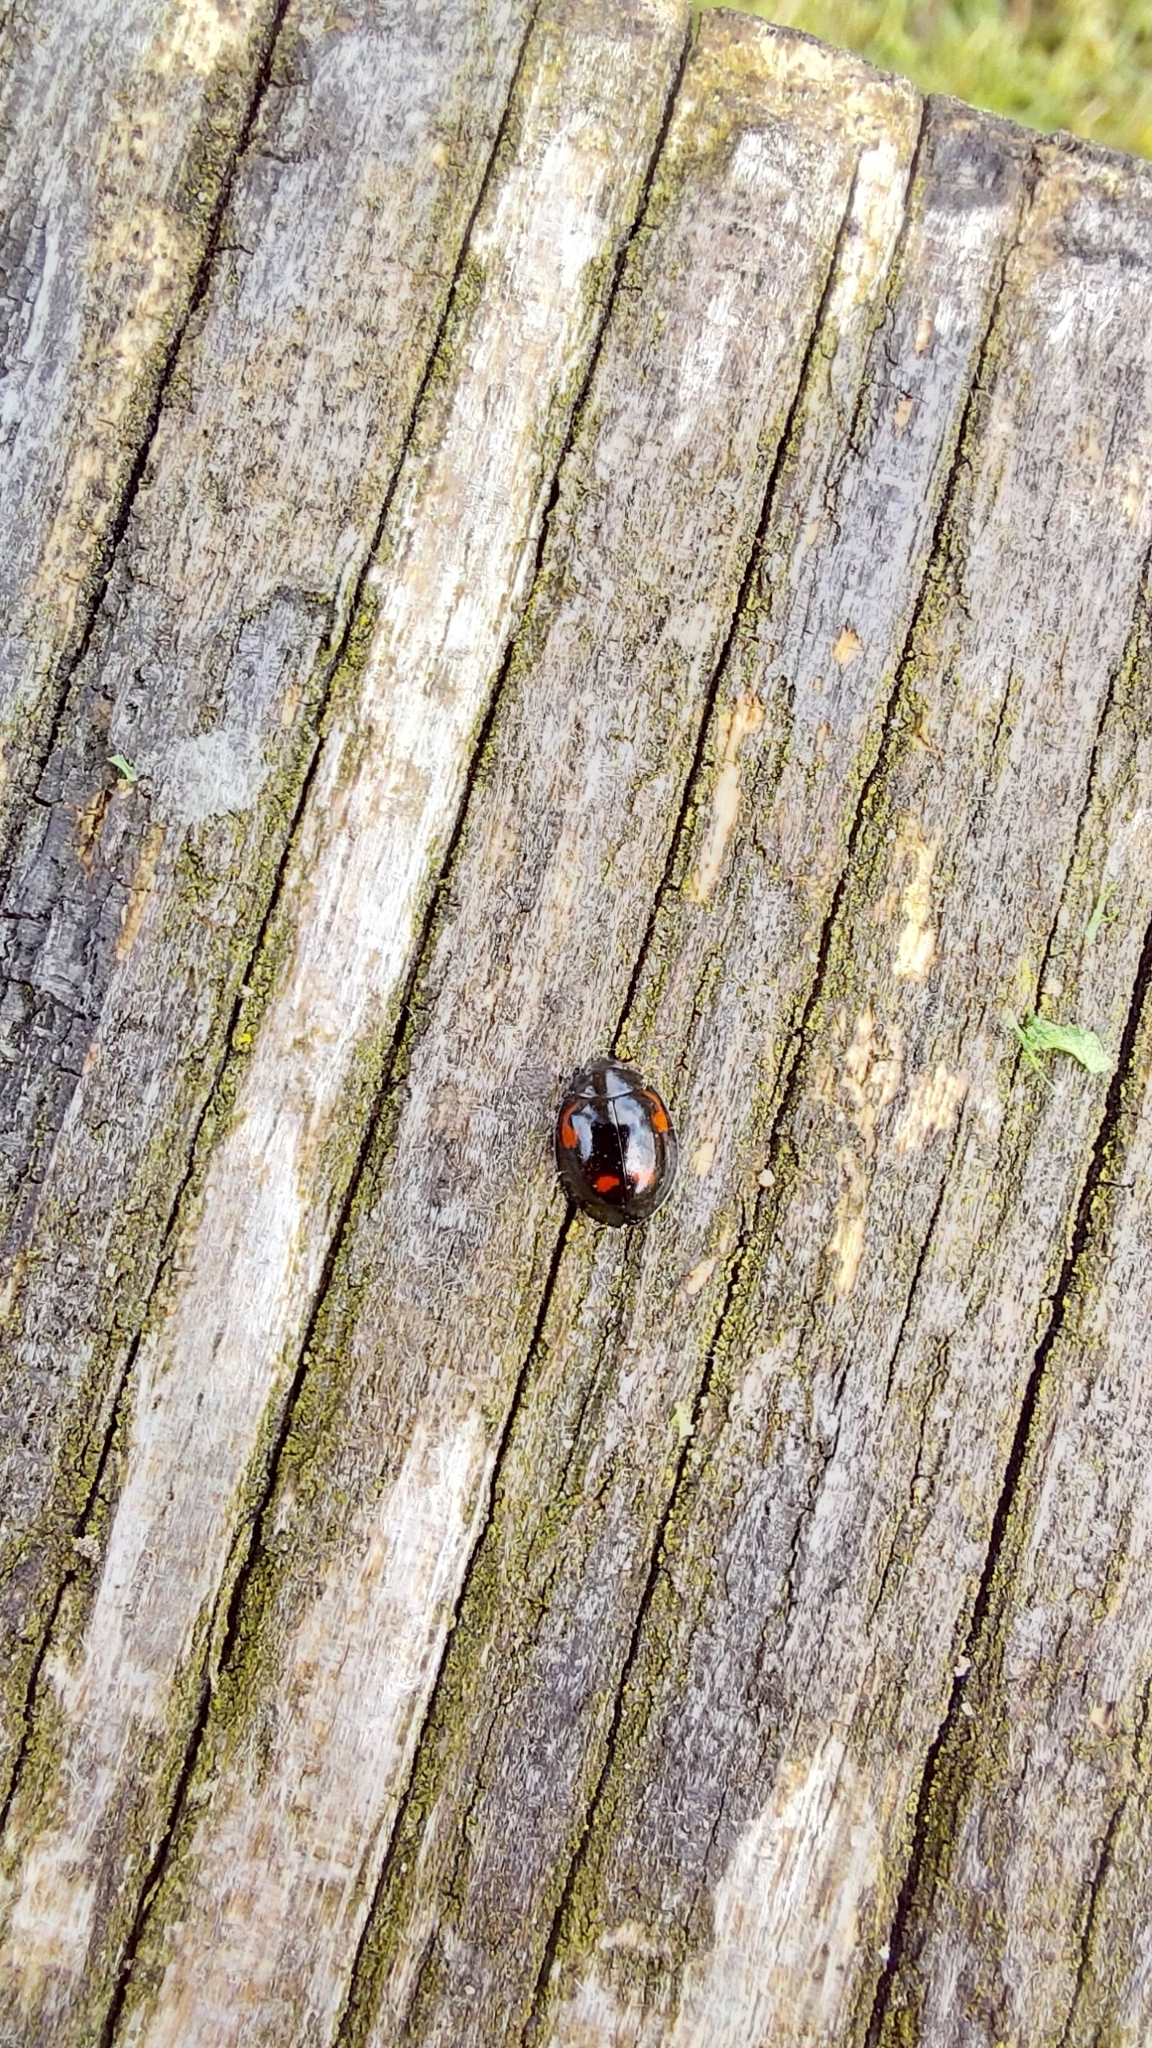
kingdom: Animalia
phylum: Arthropoda
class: Insecta
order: Coleoptera
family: Coccinellidae
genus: Brumus
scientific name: Brumus quadripustulatus
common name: Ladybird beetle
